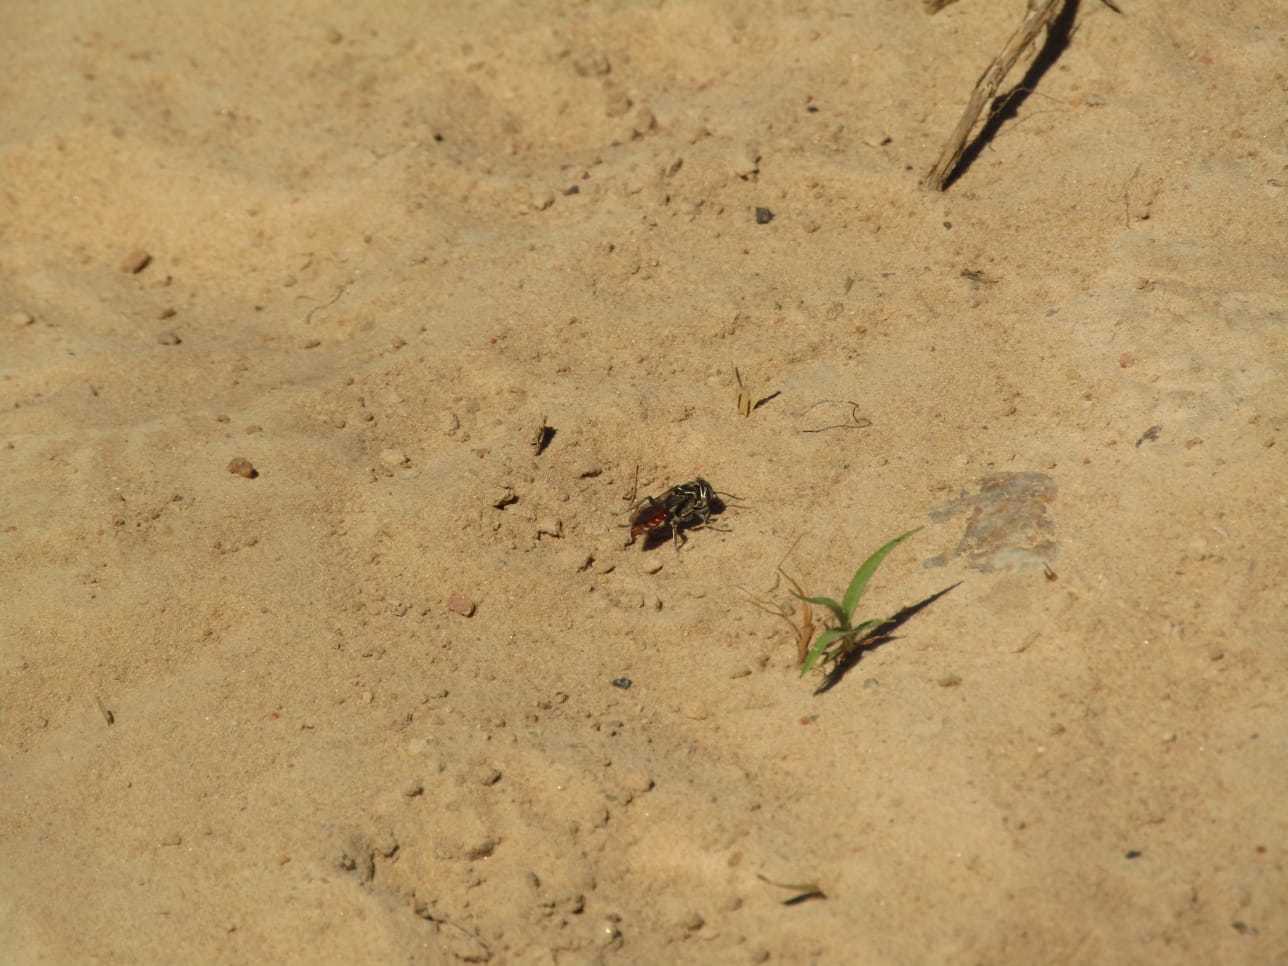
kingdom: Animalia
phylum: Arthropoda
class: Insecta
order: Hymenoptera
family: Crabronidae
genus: Larra
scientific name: Larra bicolor
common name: Wasp
